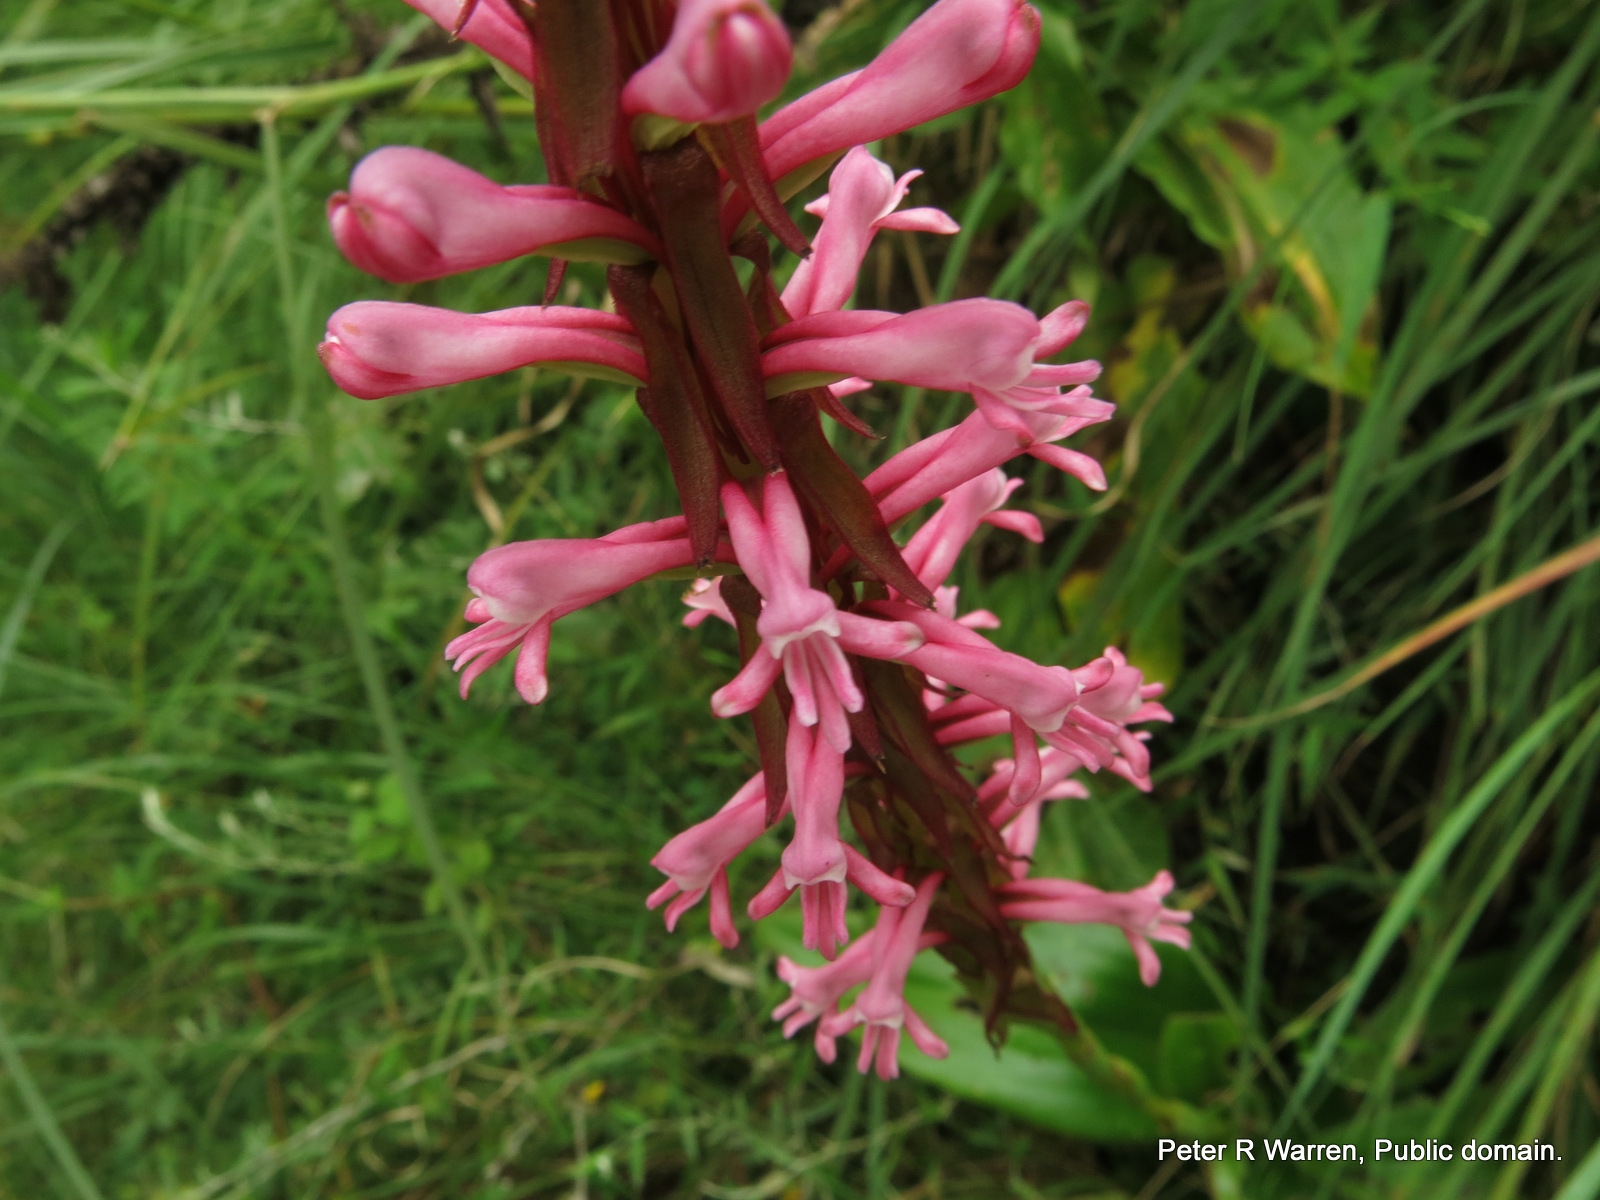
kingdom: Plantae
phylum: Tracheophyta
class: Liliopsida
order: Asparagales
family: Orchidaceae
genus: Satyrium
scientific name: Satyrium macrophyllum
